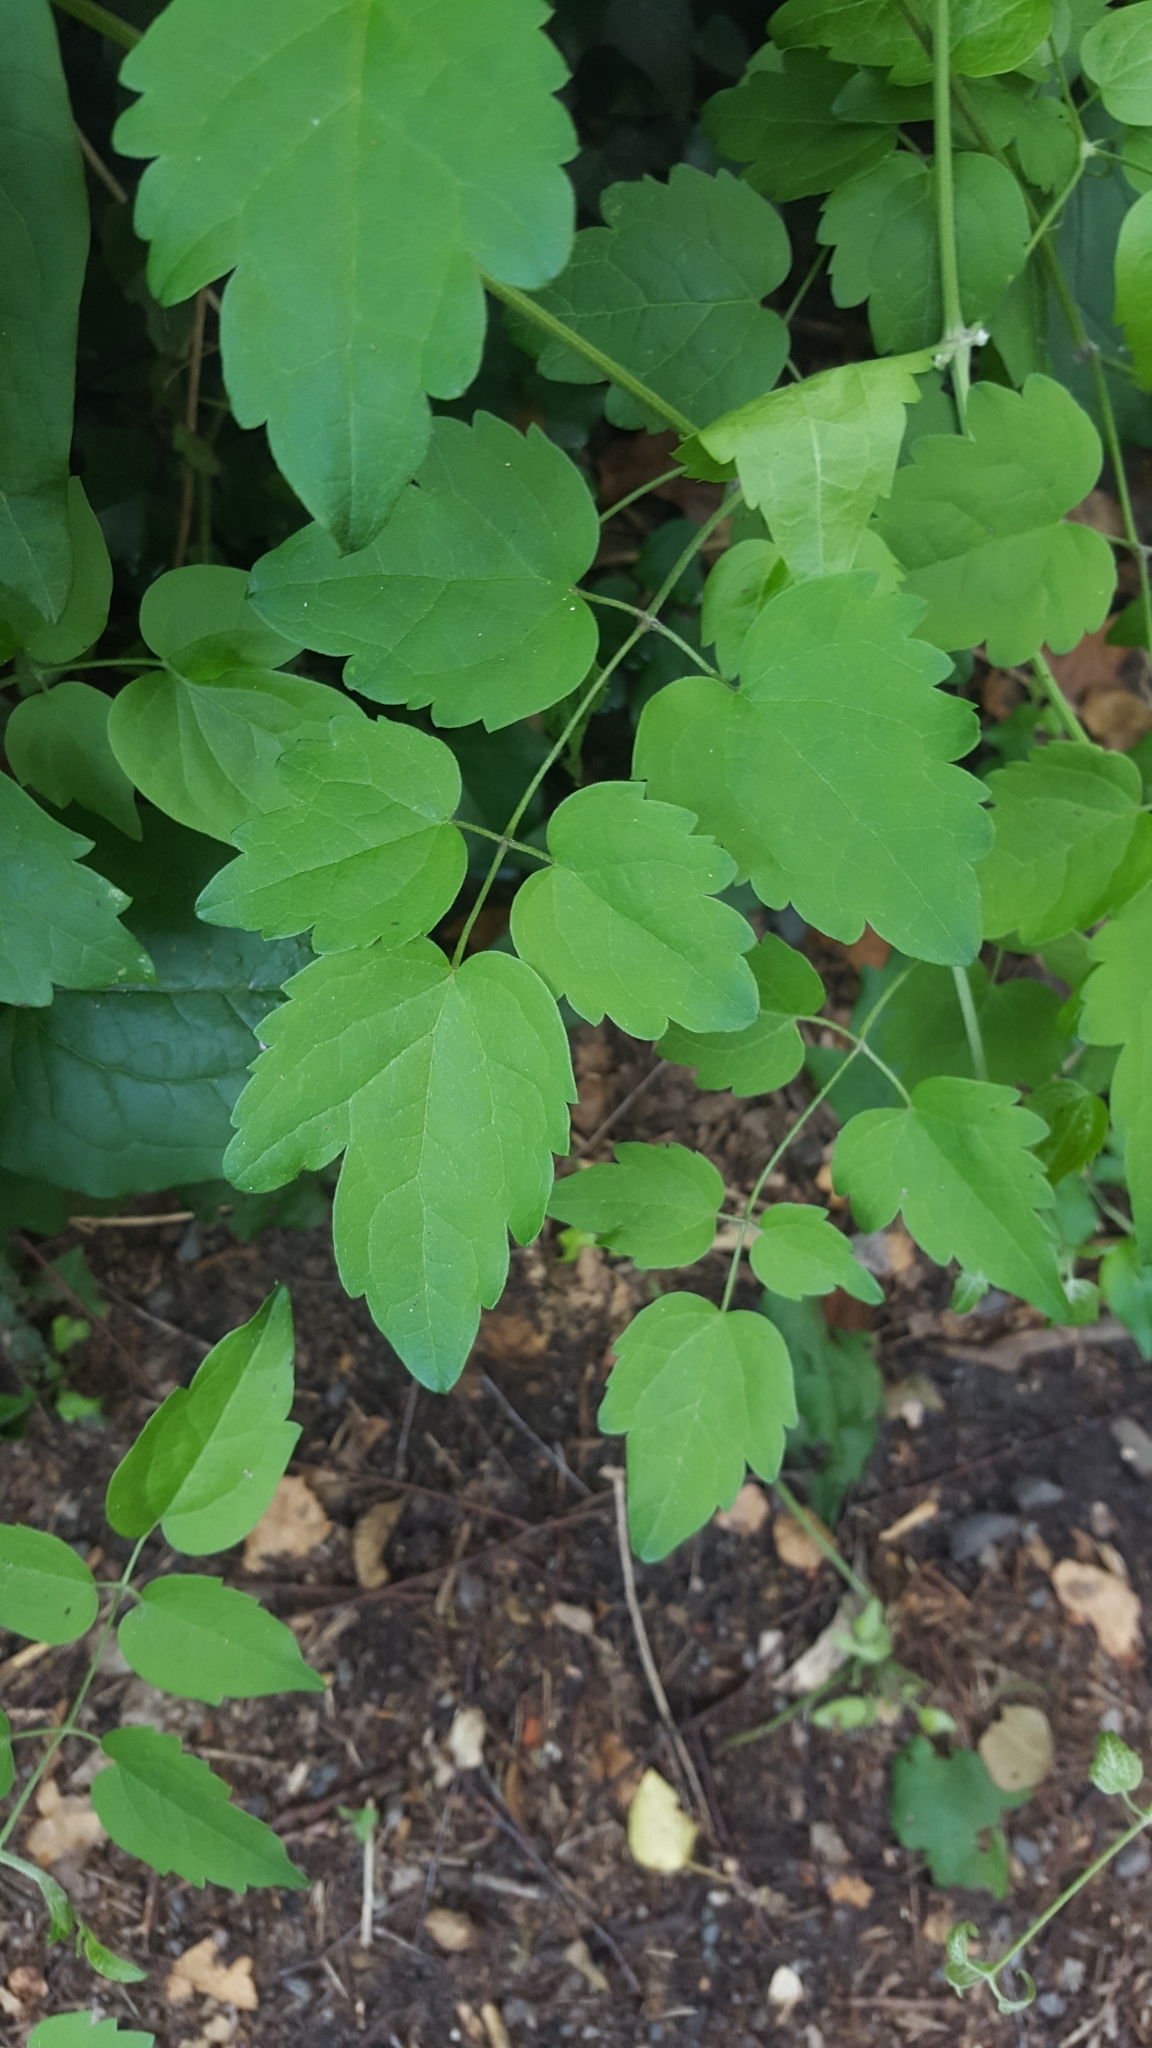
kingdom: Plantae
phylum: Tracheophyta
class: Magnoliopsida
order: Ranunculales
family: Ranunculaceae
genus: Clematis
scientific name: Clematis vitalba
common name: Evergreen clematis
